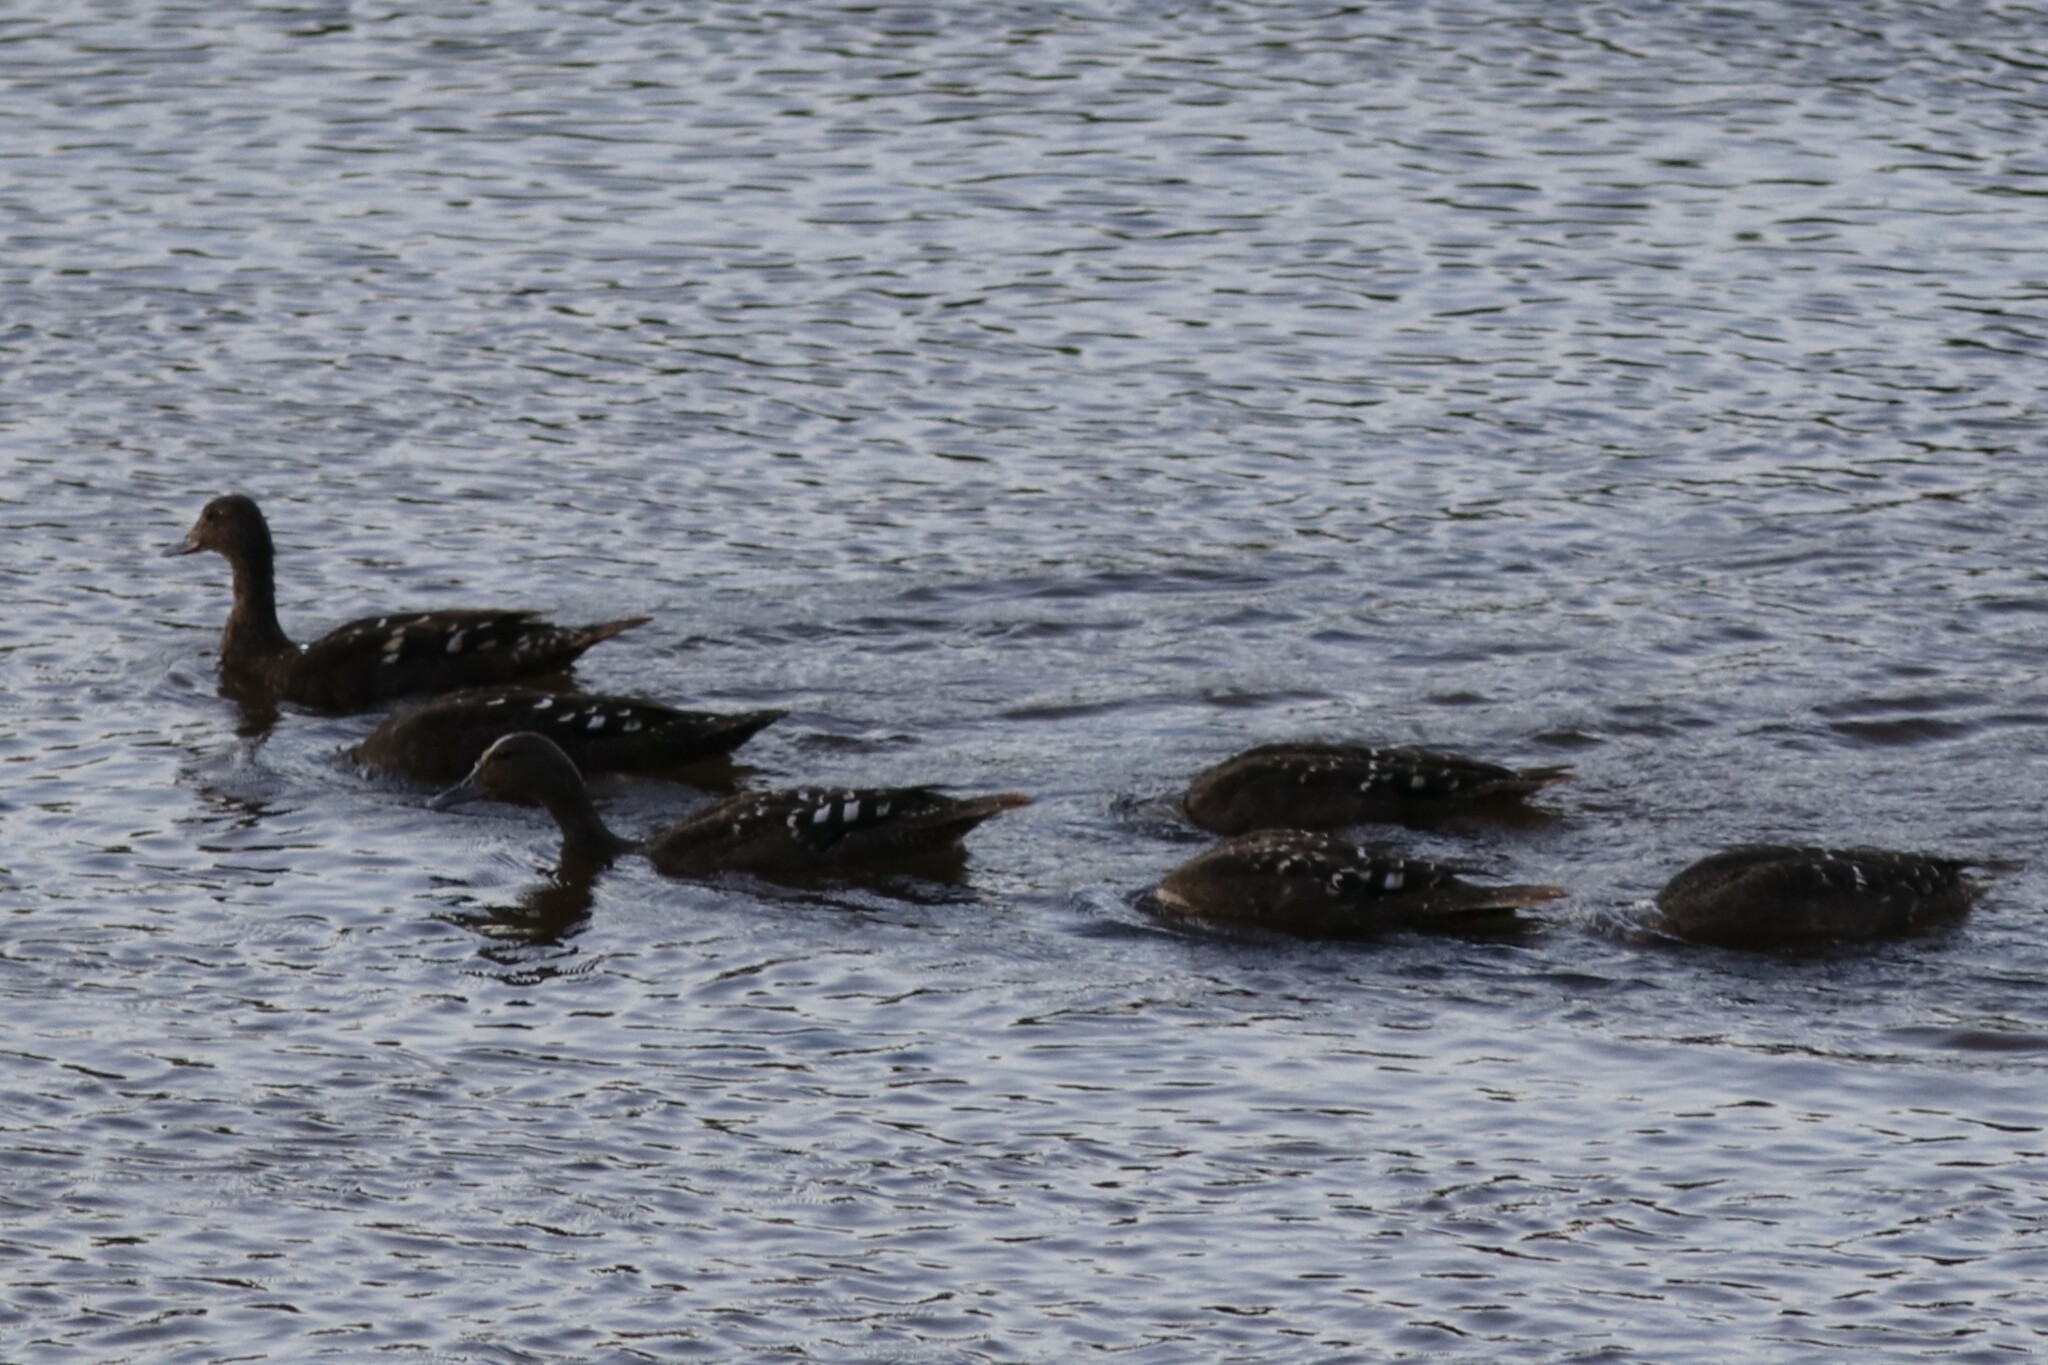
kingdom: Animalia
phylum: Chordata
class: Aves
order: Anseriformes
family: Anatidae
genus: Anas
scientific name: Anas sparsa
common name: African black duck
